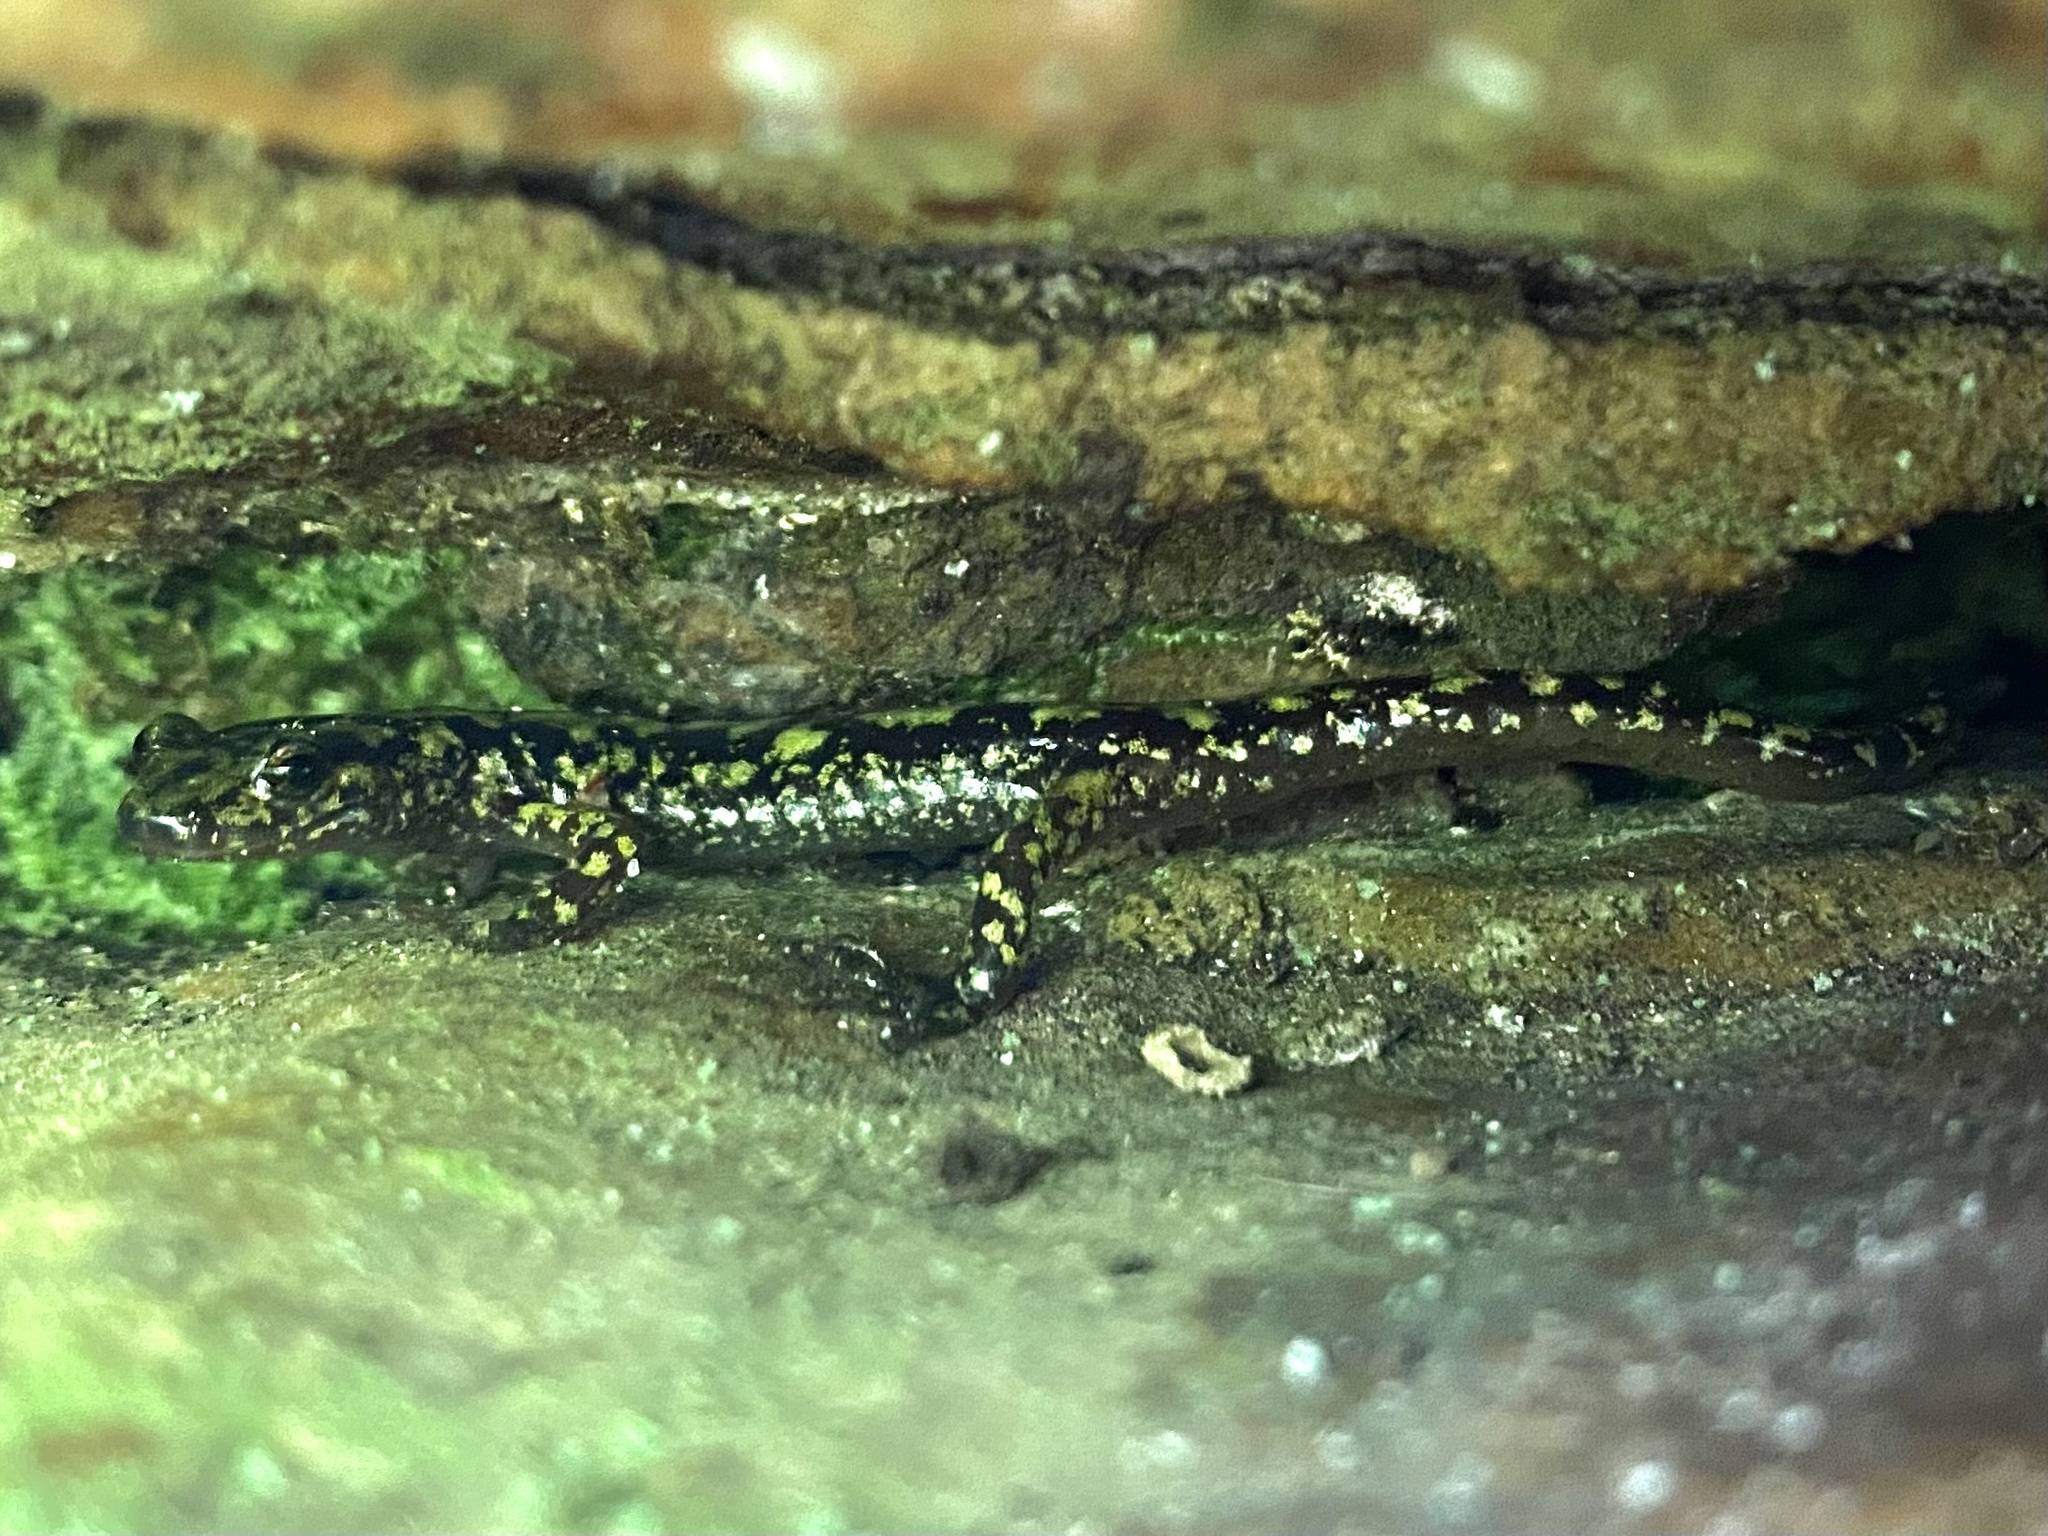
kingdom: Animalia
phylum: Chordata
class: Amphibia
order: Caudata
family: Plethodontidae
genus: Aneides
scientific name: Aneides aeneus
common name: Green salamander
